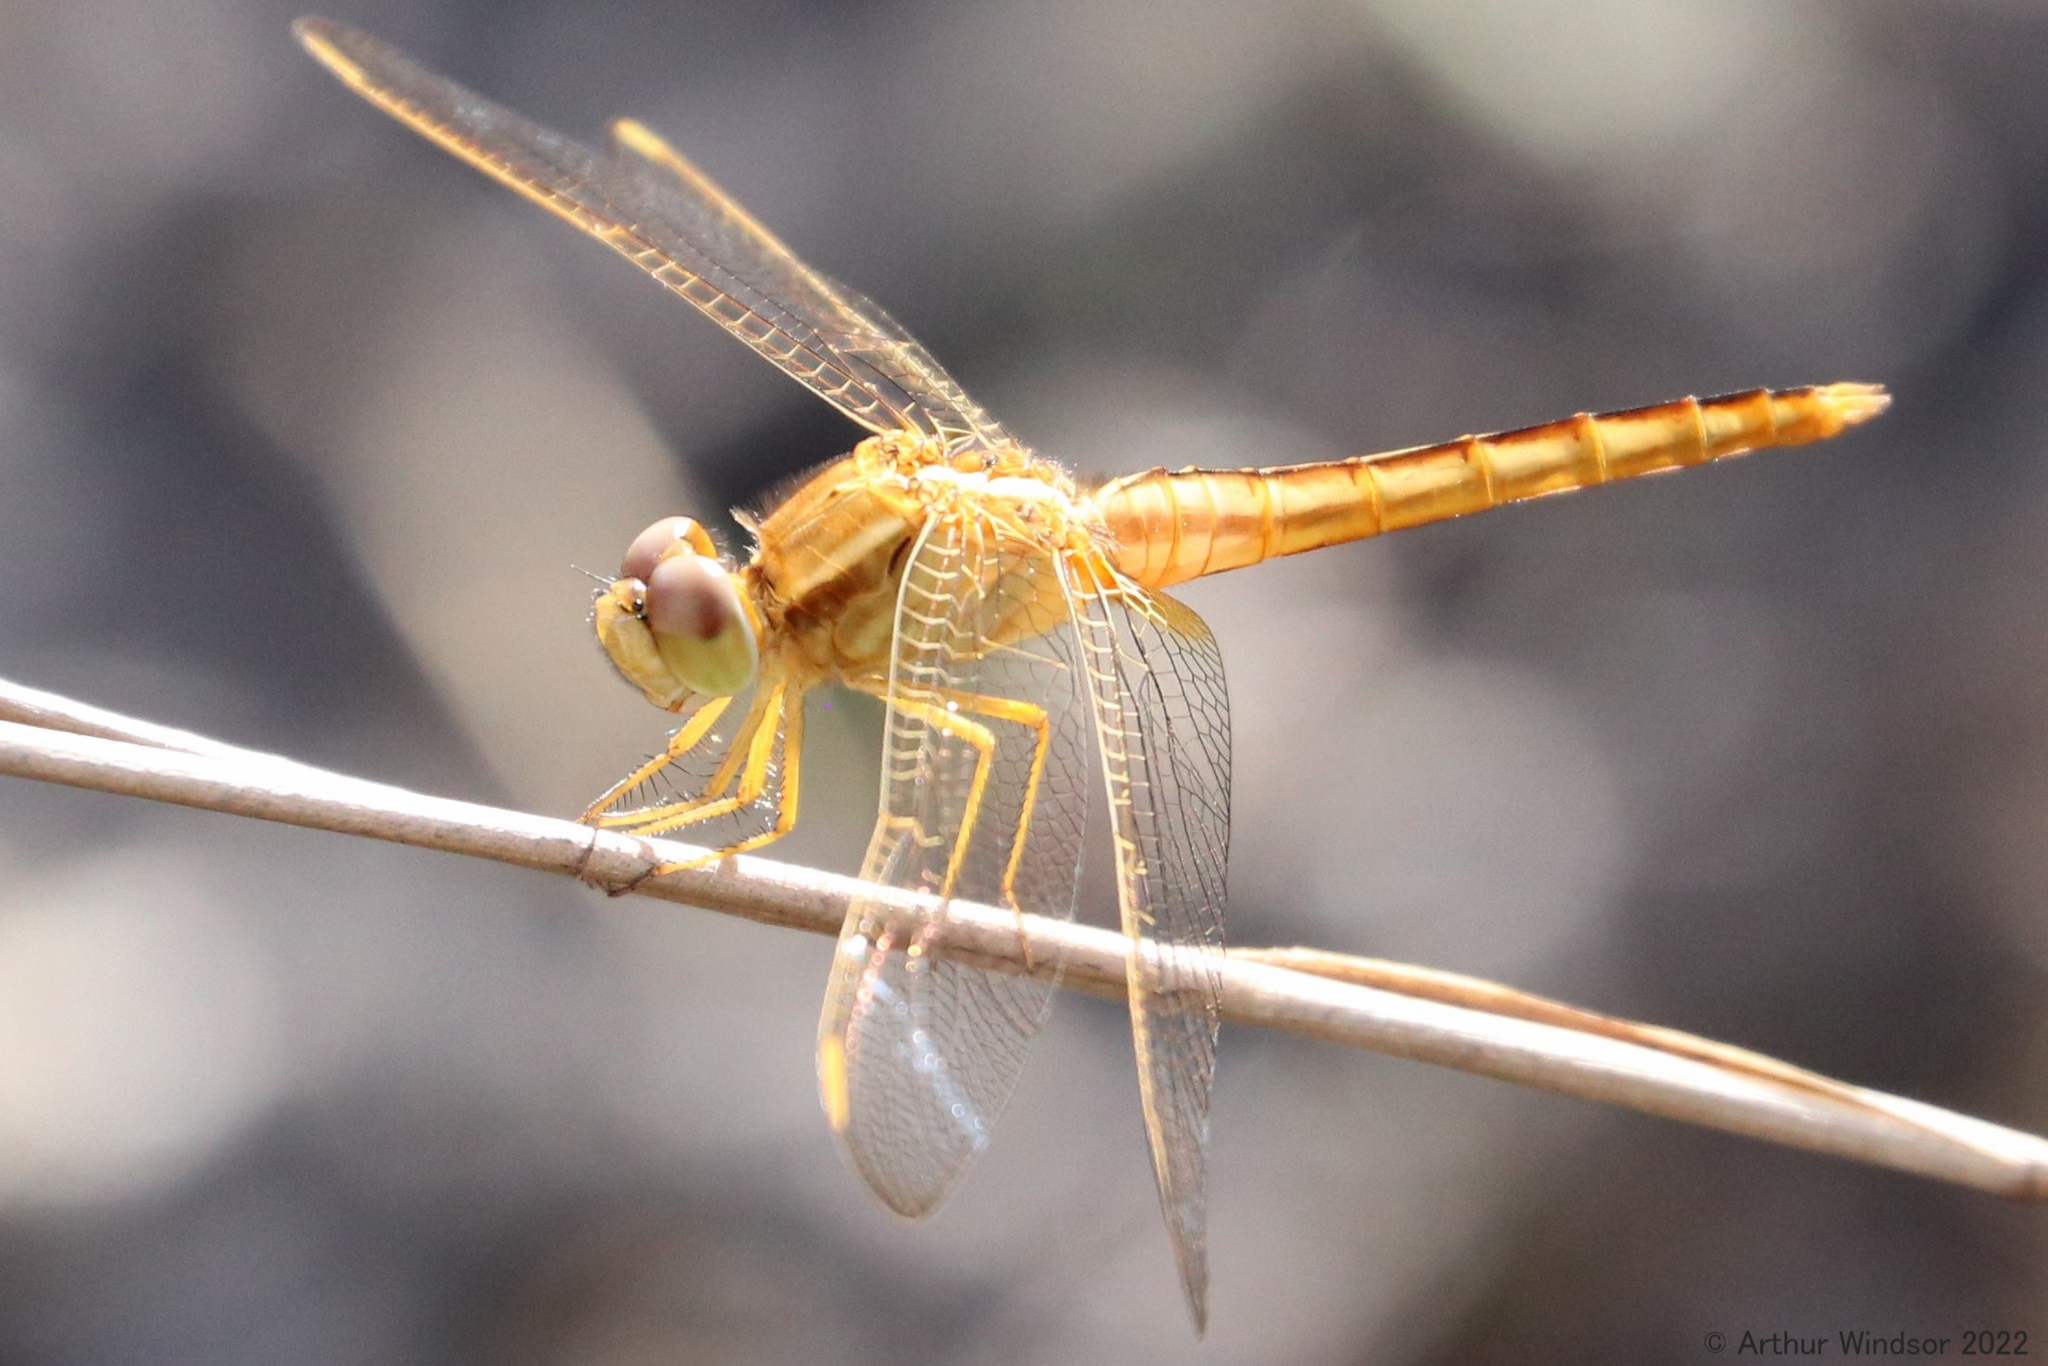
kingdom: Animalia
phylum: Arthropoda
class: Insecta
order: Odonata
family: Libellulidae
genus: Crocothemis
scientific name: Crocothemis servilia
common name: Scarlet skimmer
